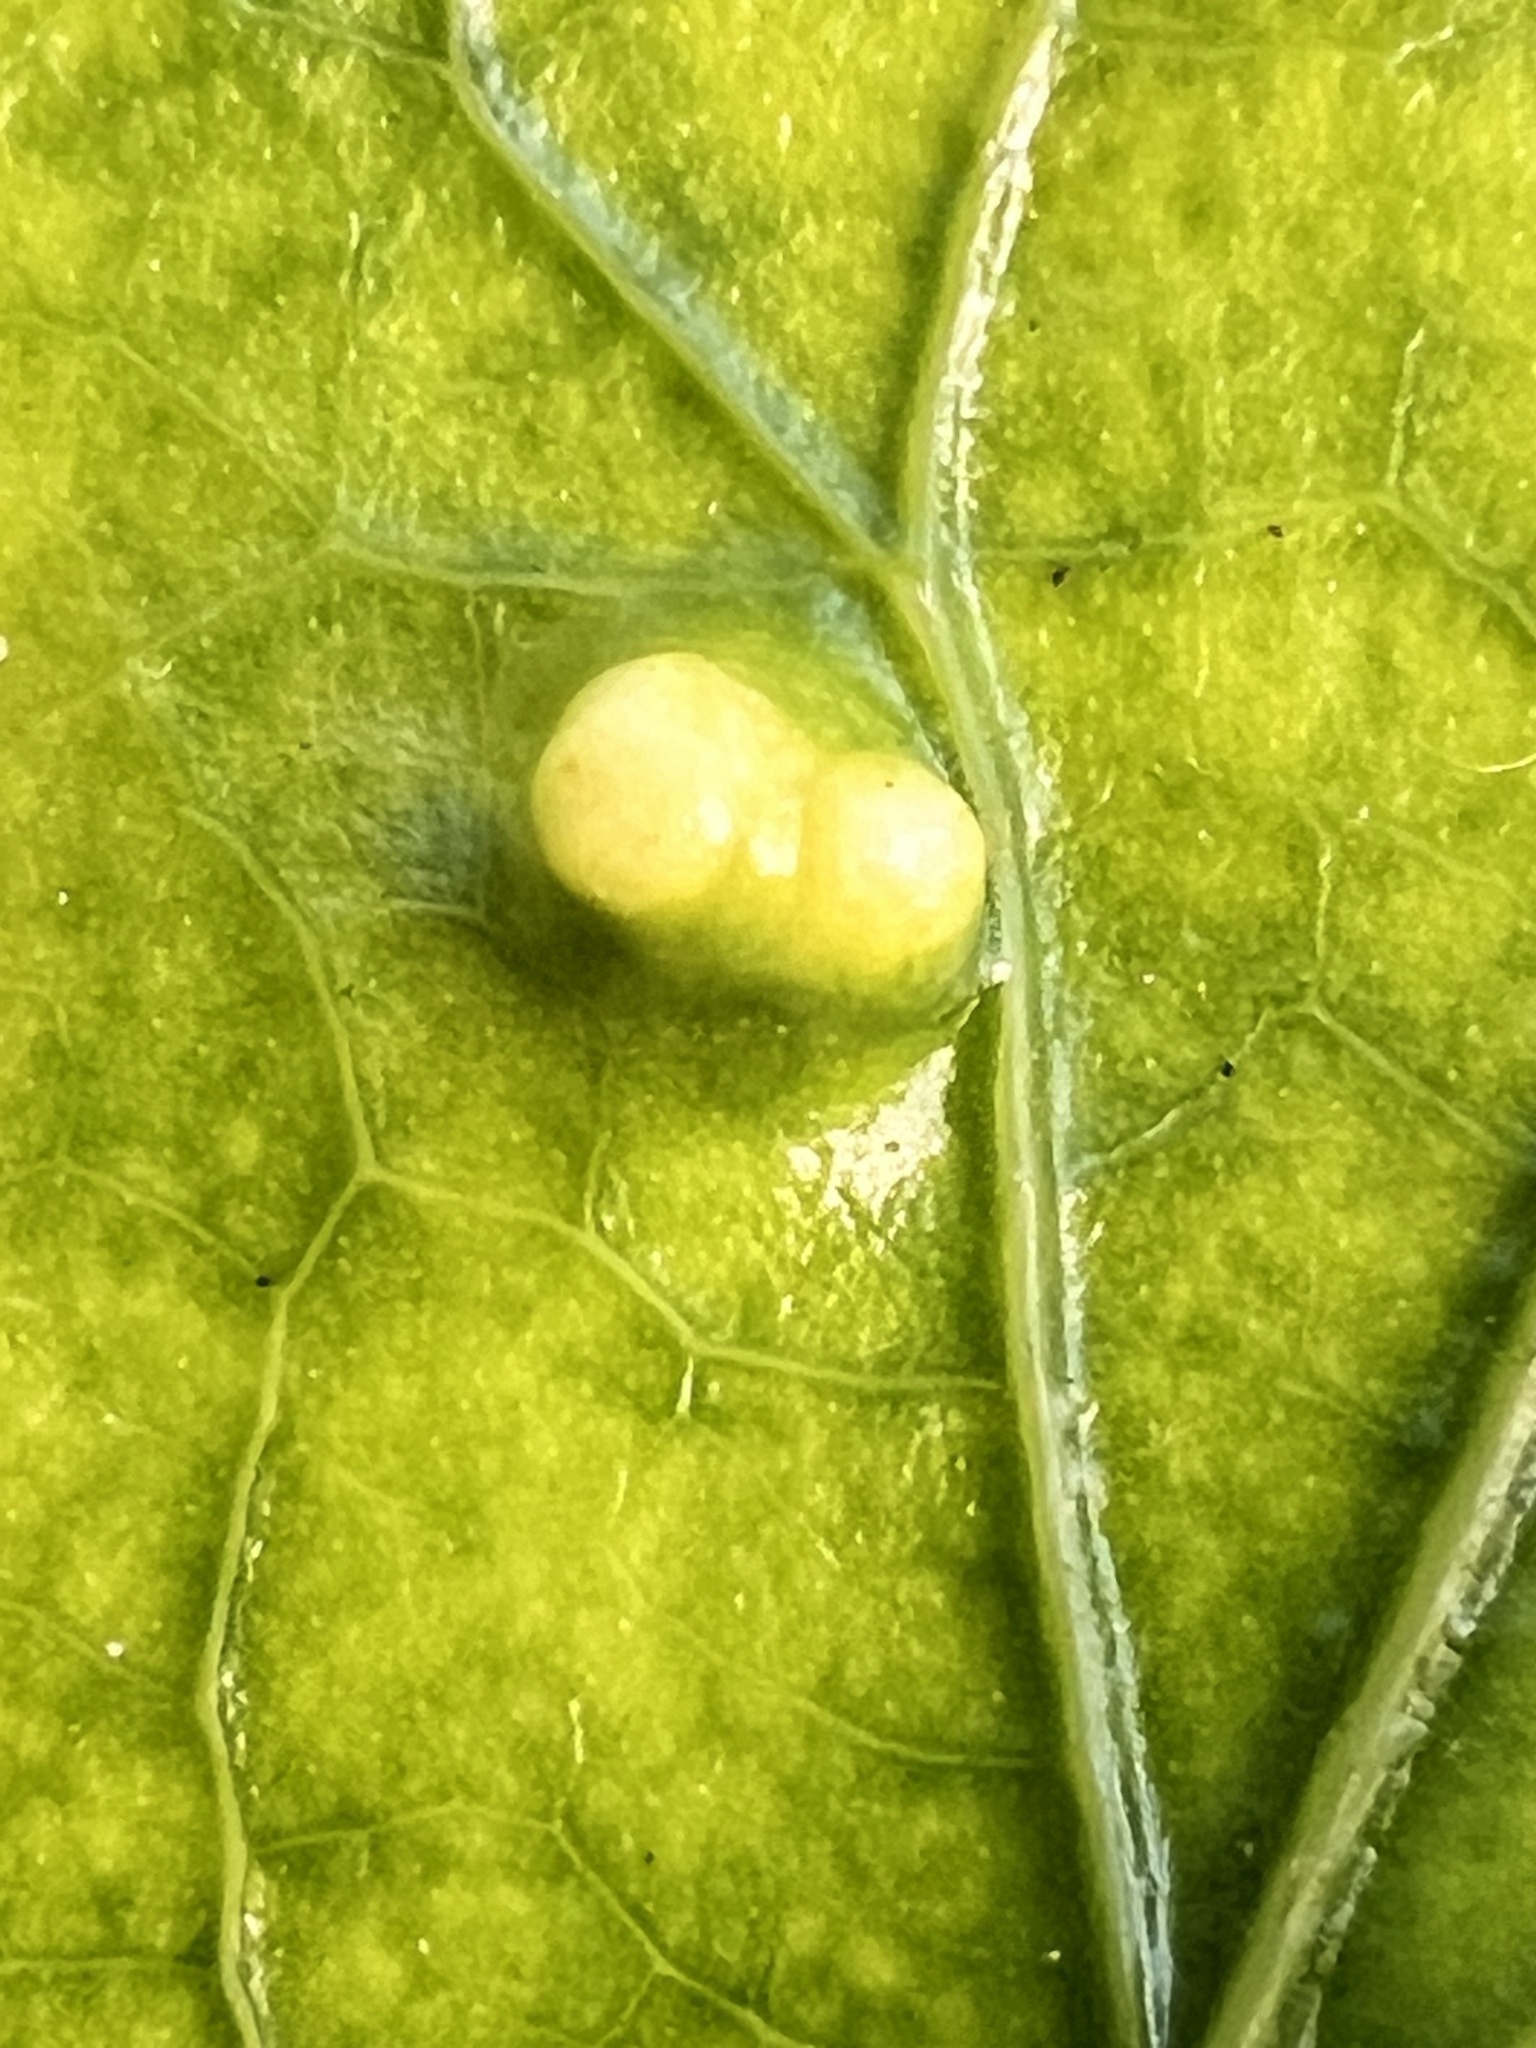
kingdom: Animalia
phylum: Arthropoda
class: Arachnida
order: Trombidiformes
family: Eriophyidae
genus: Aceria
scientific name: Aceria hibisci
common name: Mite
